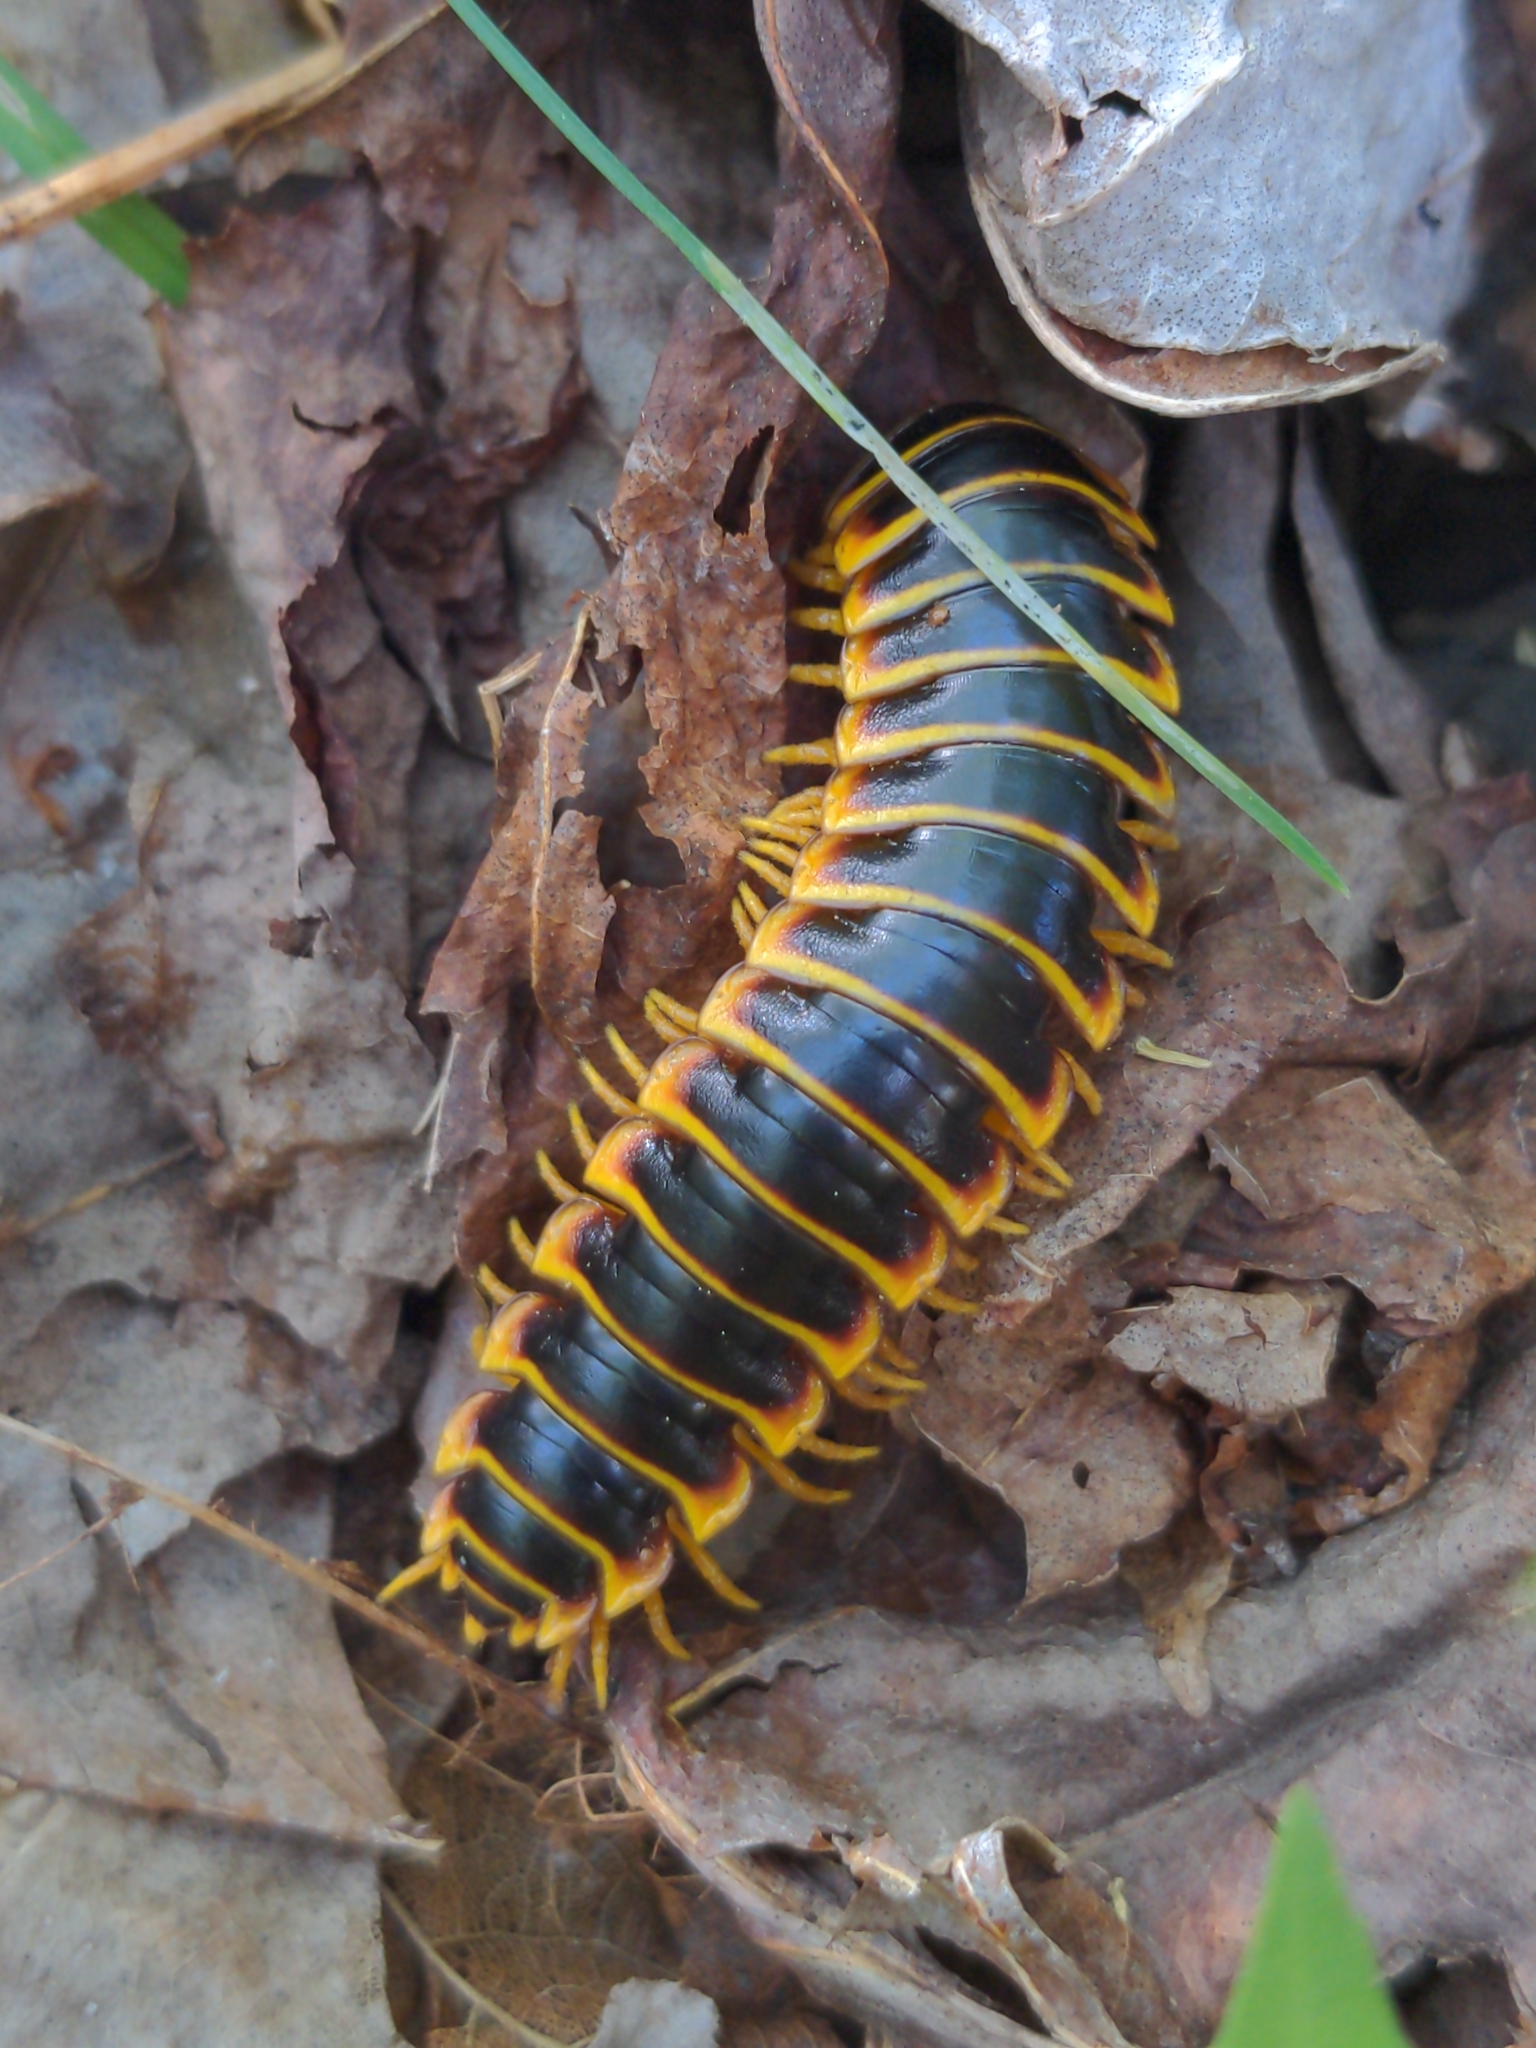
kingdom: Animalia
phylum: Arthropoda
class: Diplopoda
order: Polydesmida
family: Xystodesmidae
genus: Apheloria
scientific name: Apheloria virginiensis
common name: Black-and-gold flat millipede
